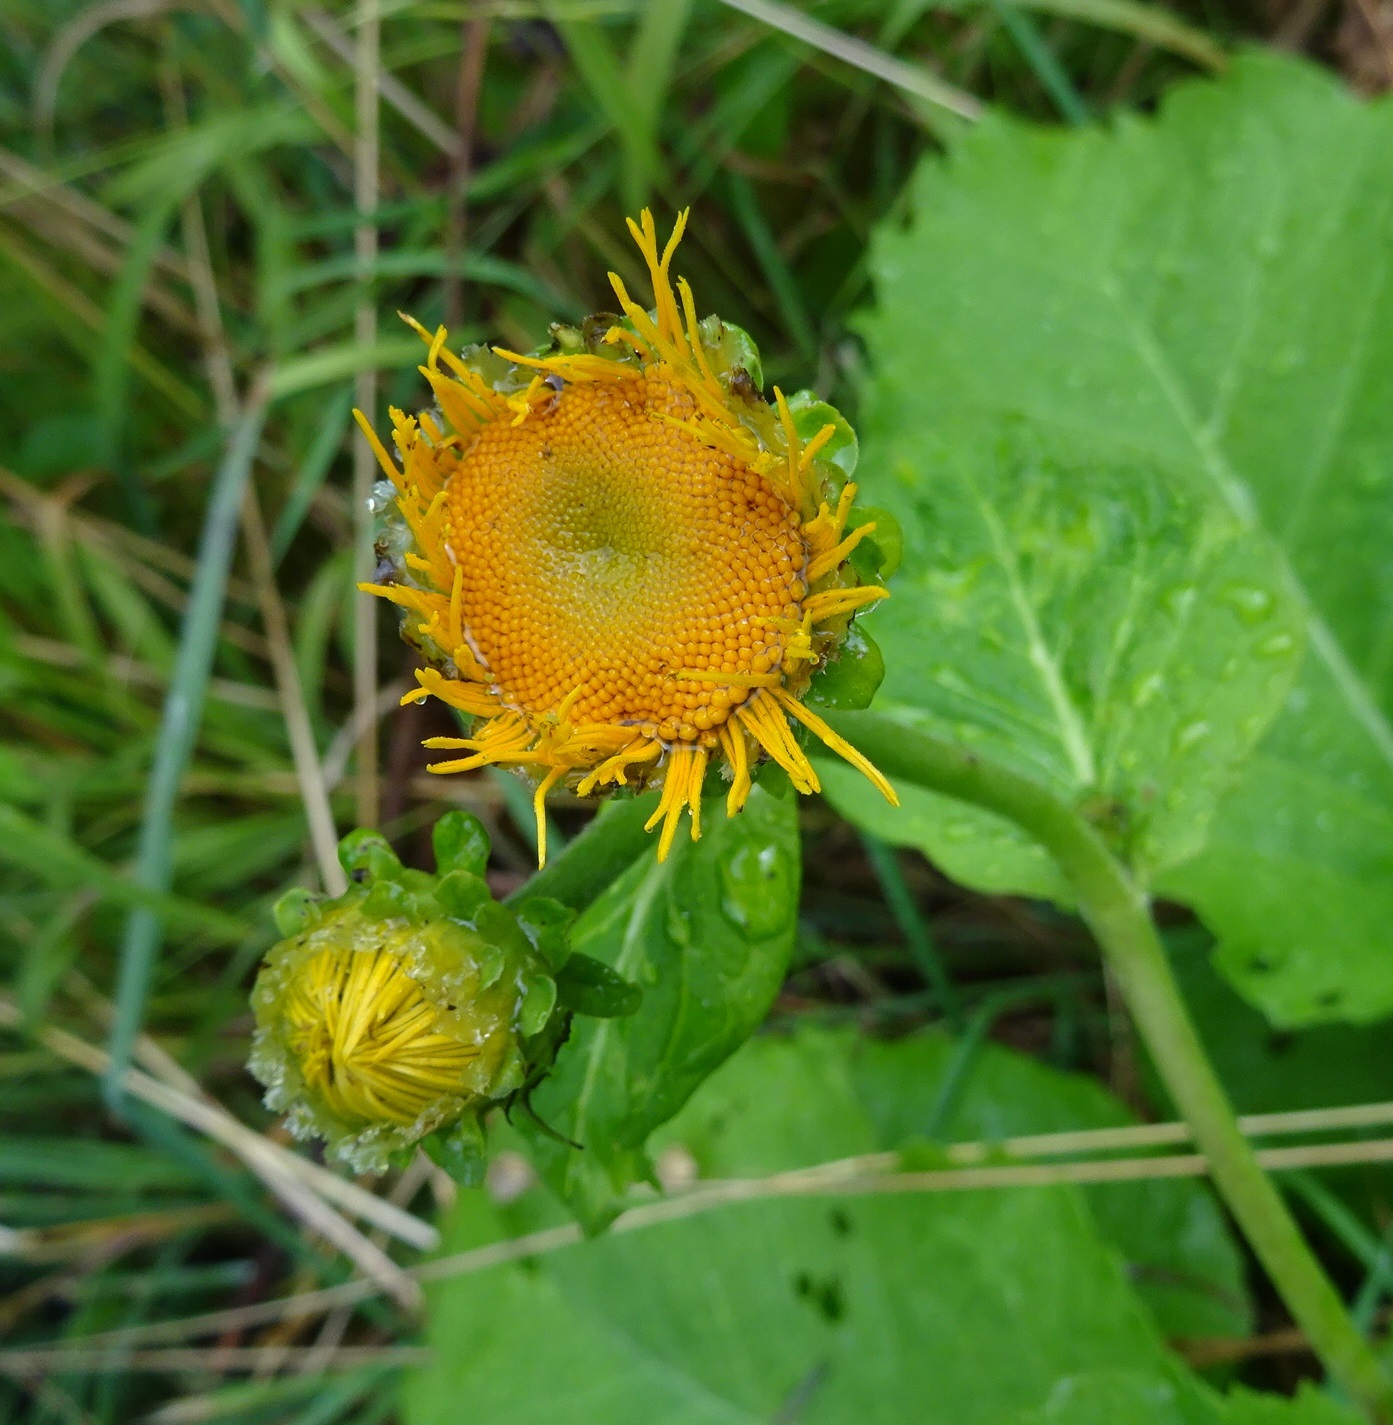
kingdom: Plantae
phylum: Tracheophyta
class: Magnoliopsida
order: Asterales
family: Asteraceae
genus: Telekia
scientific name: Telekia speciosa
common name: Yellow oxeye
